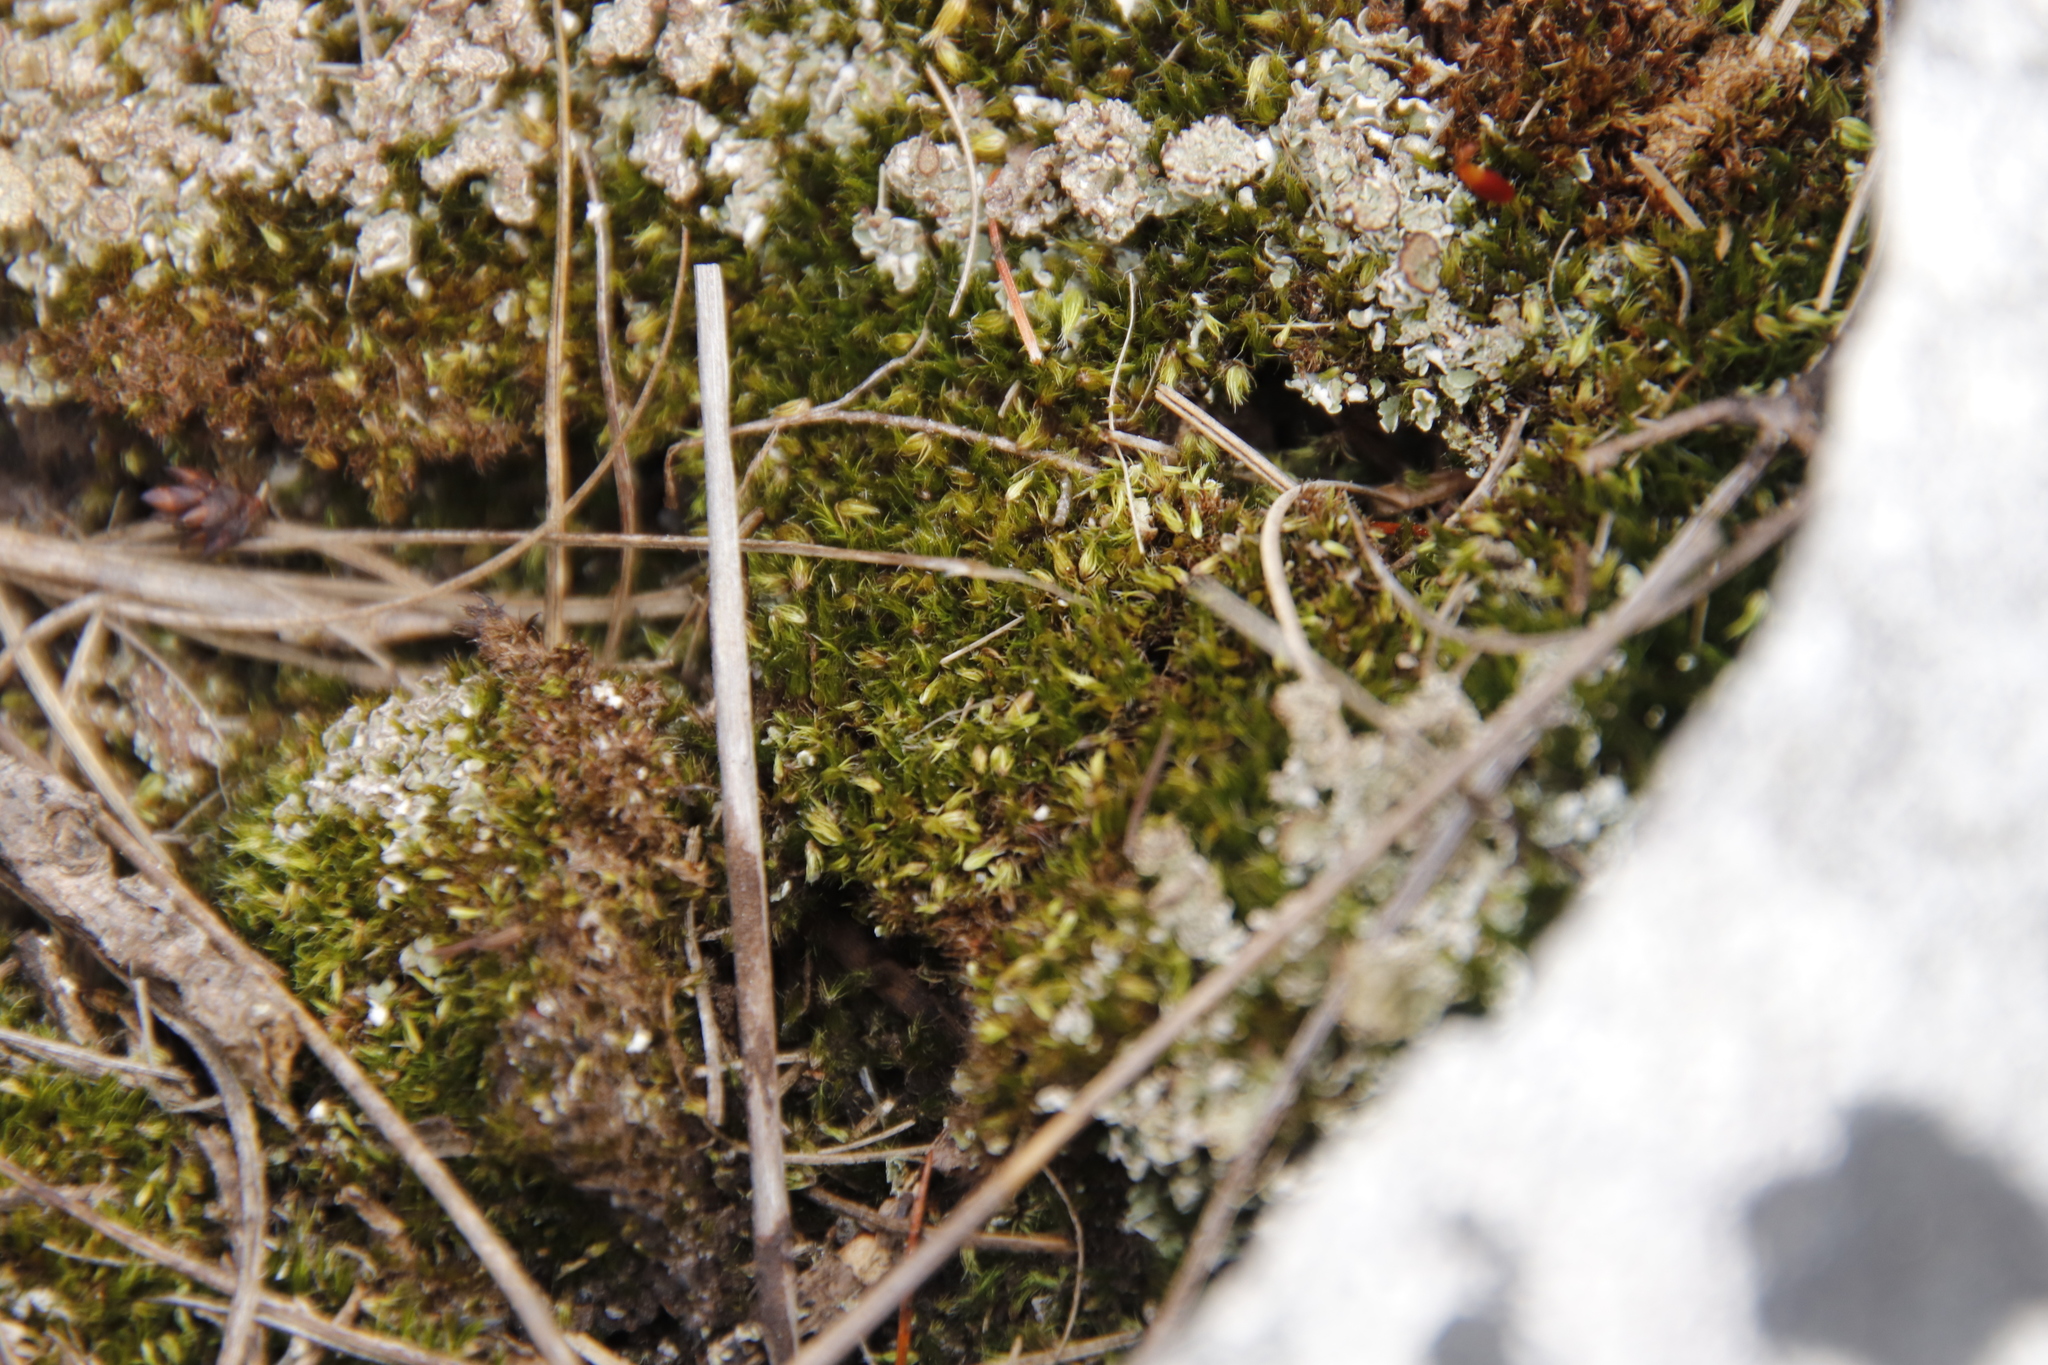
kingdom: Plantae
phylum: Bryophyta
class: Bryopsida
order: Dicranales
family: Leucobryaceae
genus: Campylopus
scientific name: Campylopus bartramiaceus
